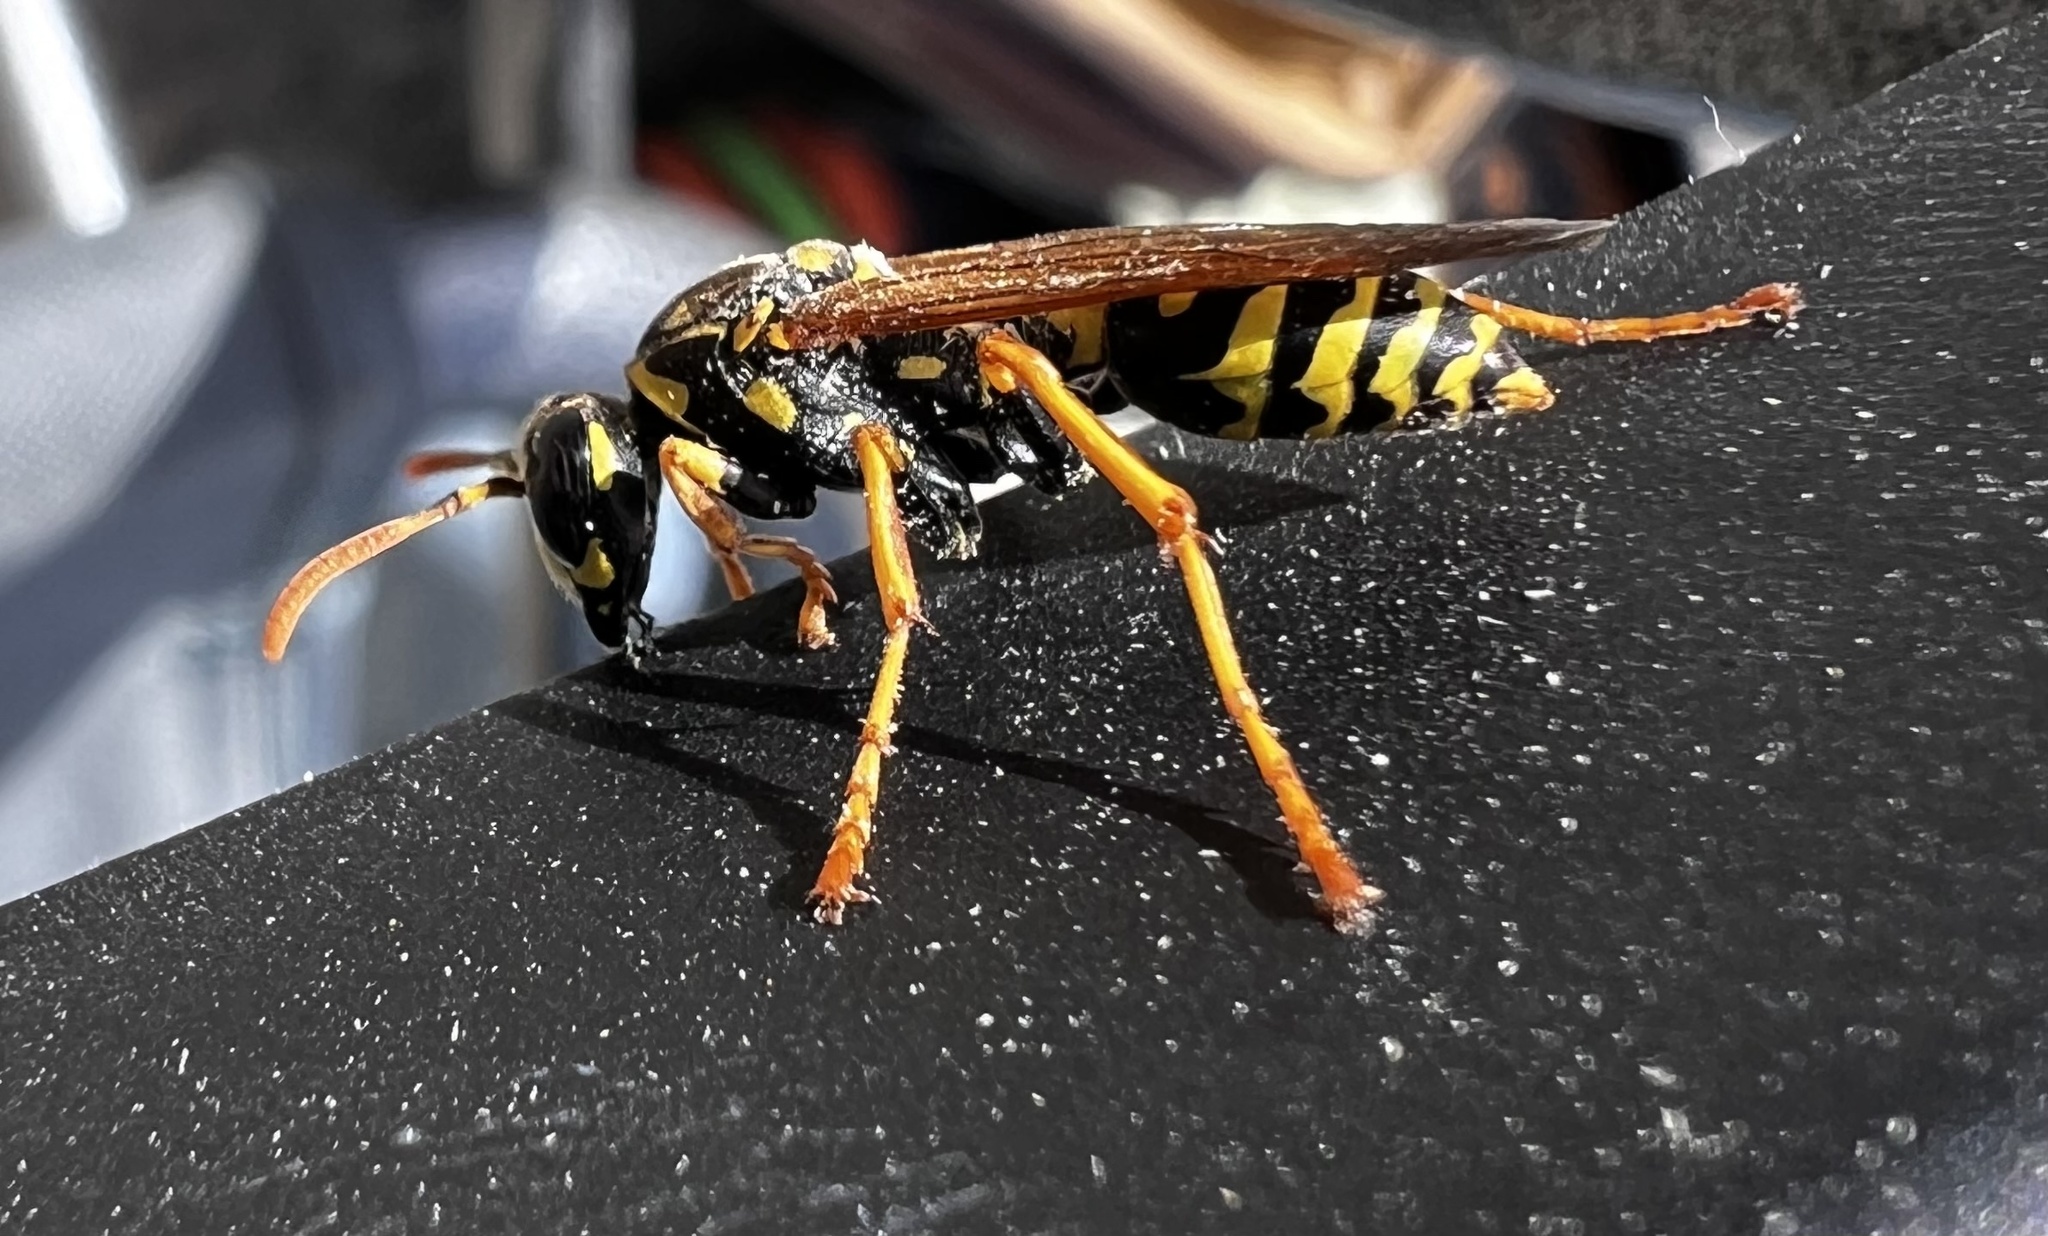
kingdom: Animalia
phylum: Arthropoda
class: Insecta
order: Hymenoptera
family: Eumenidae
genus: Polistes
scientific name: Polistes dominula
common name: Paper wasp
